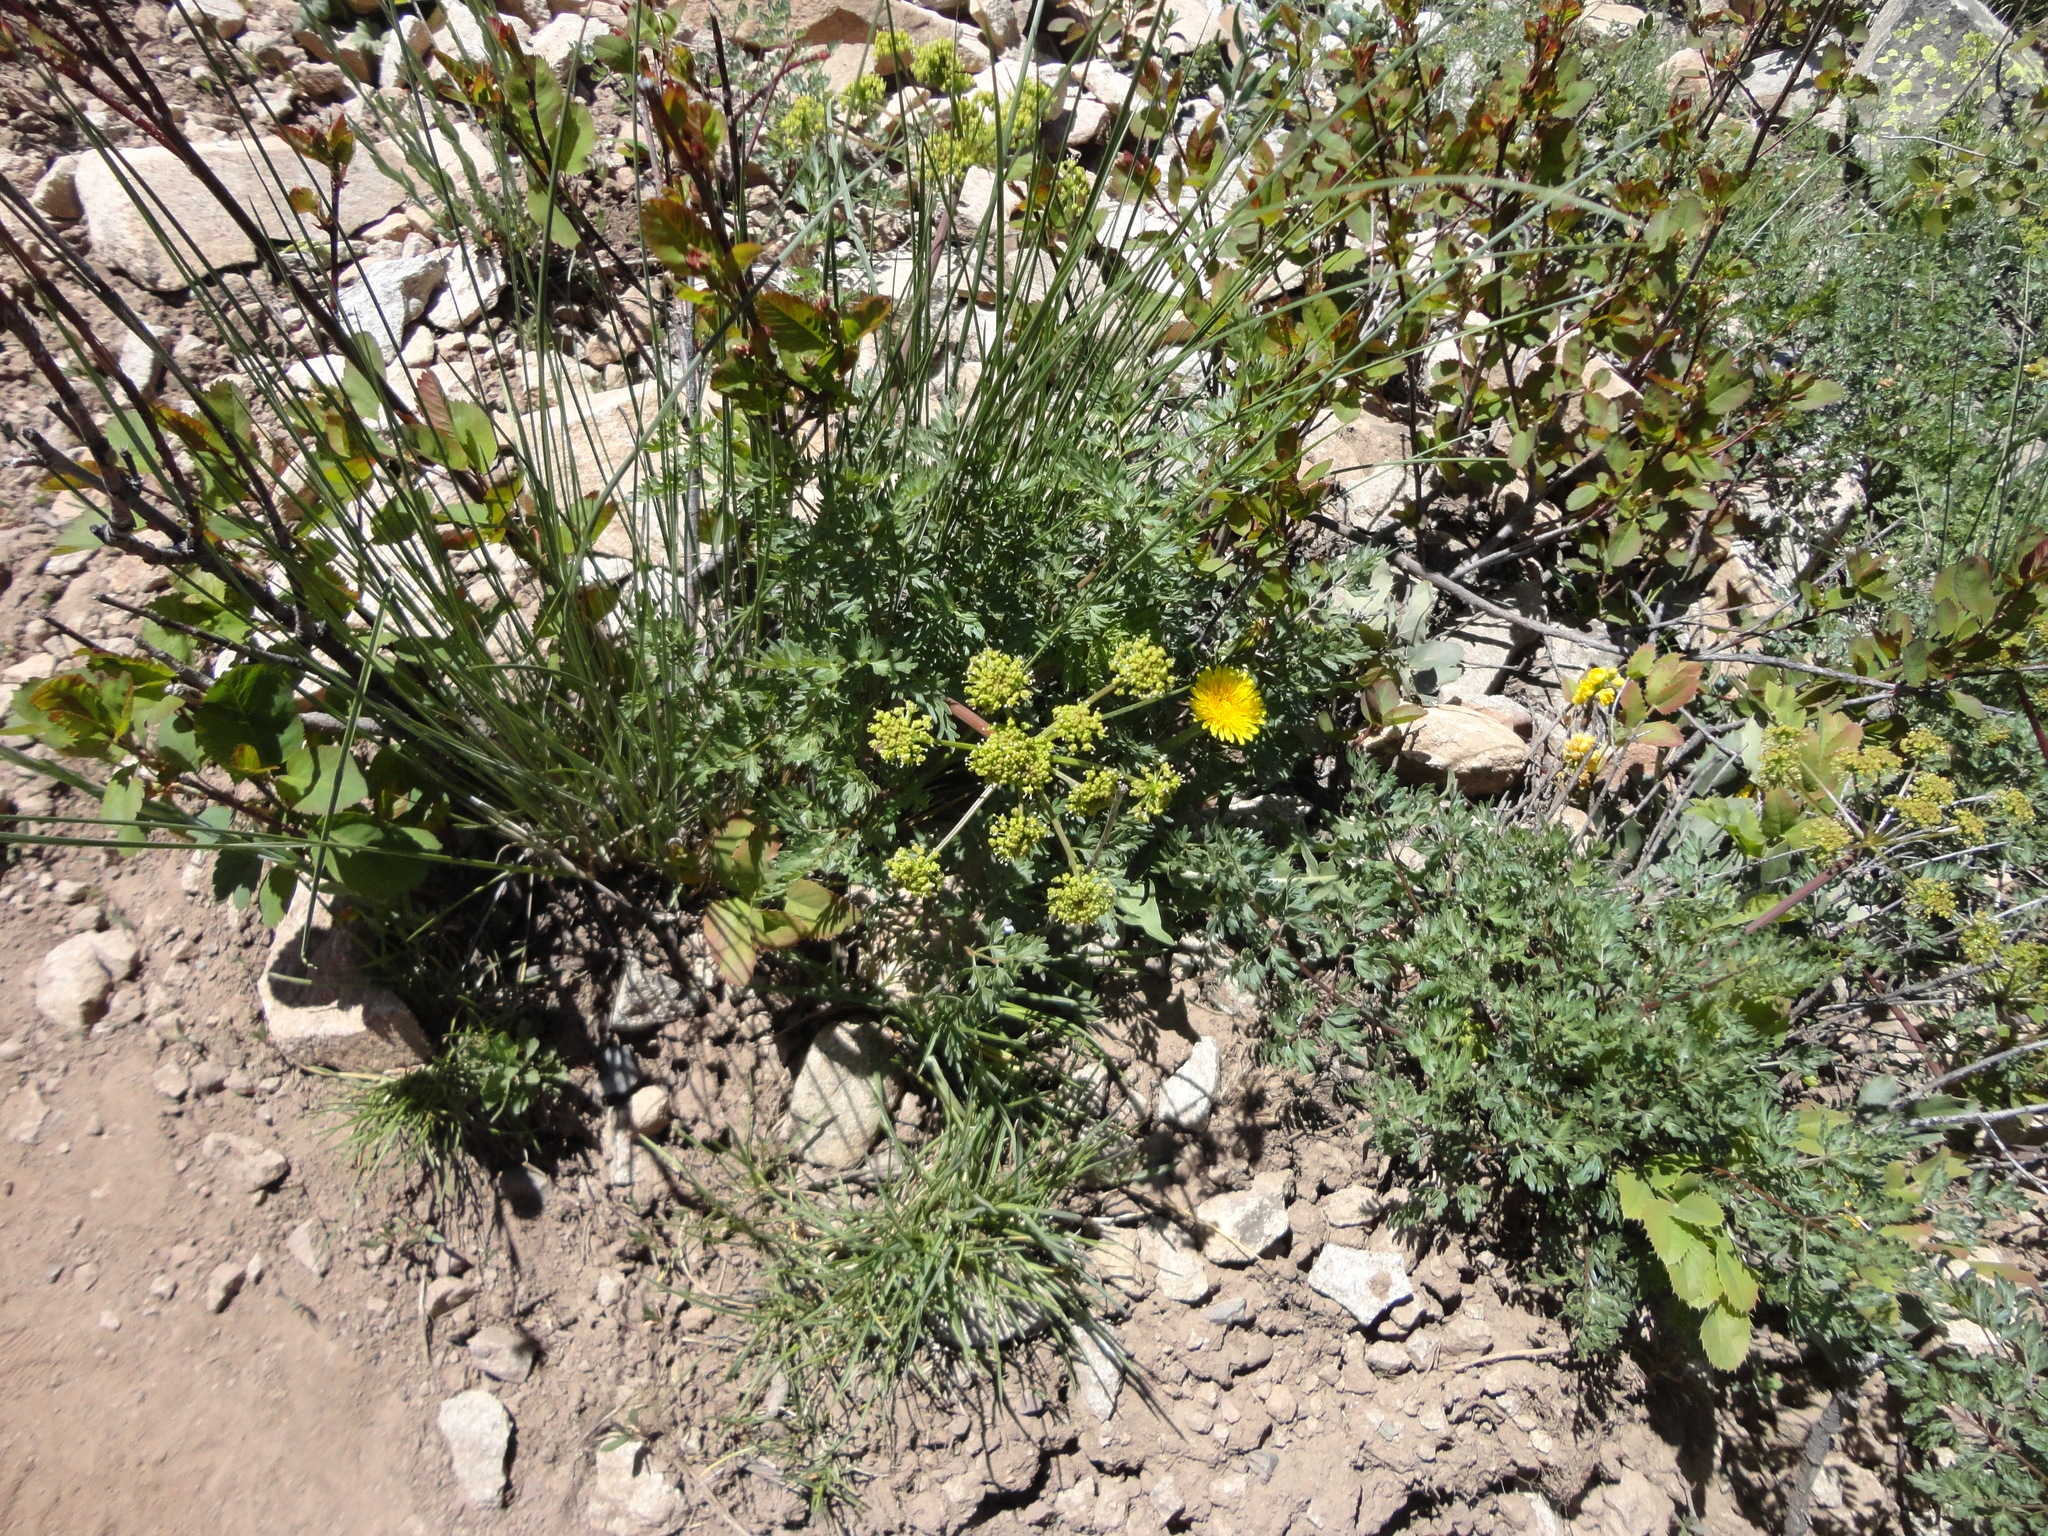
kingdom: Plantae
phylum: Tracheophyta
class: Magnoliopsida
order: Apiales
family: Apiaceae
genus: Lomatium
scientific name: Lomatium dissectum
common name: Lomatium
